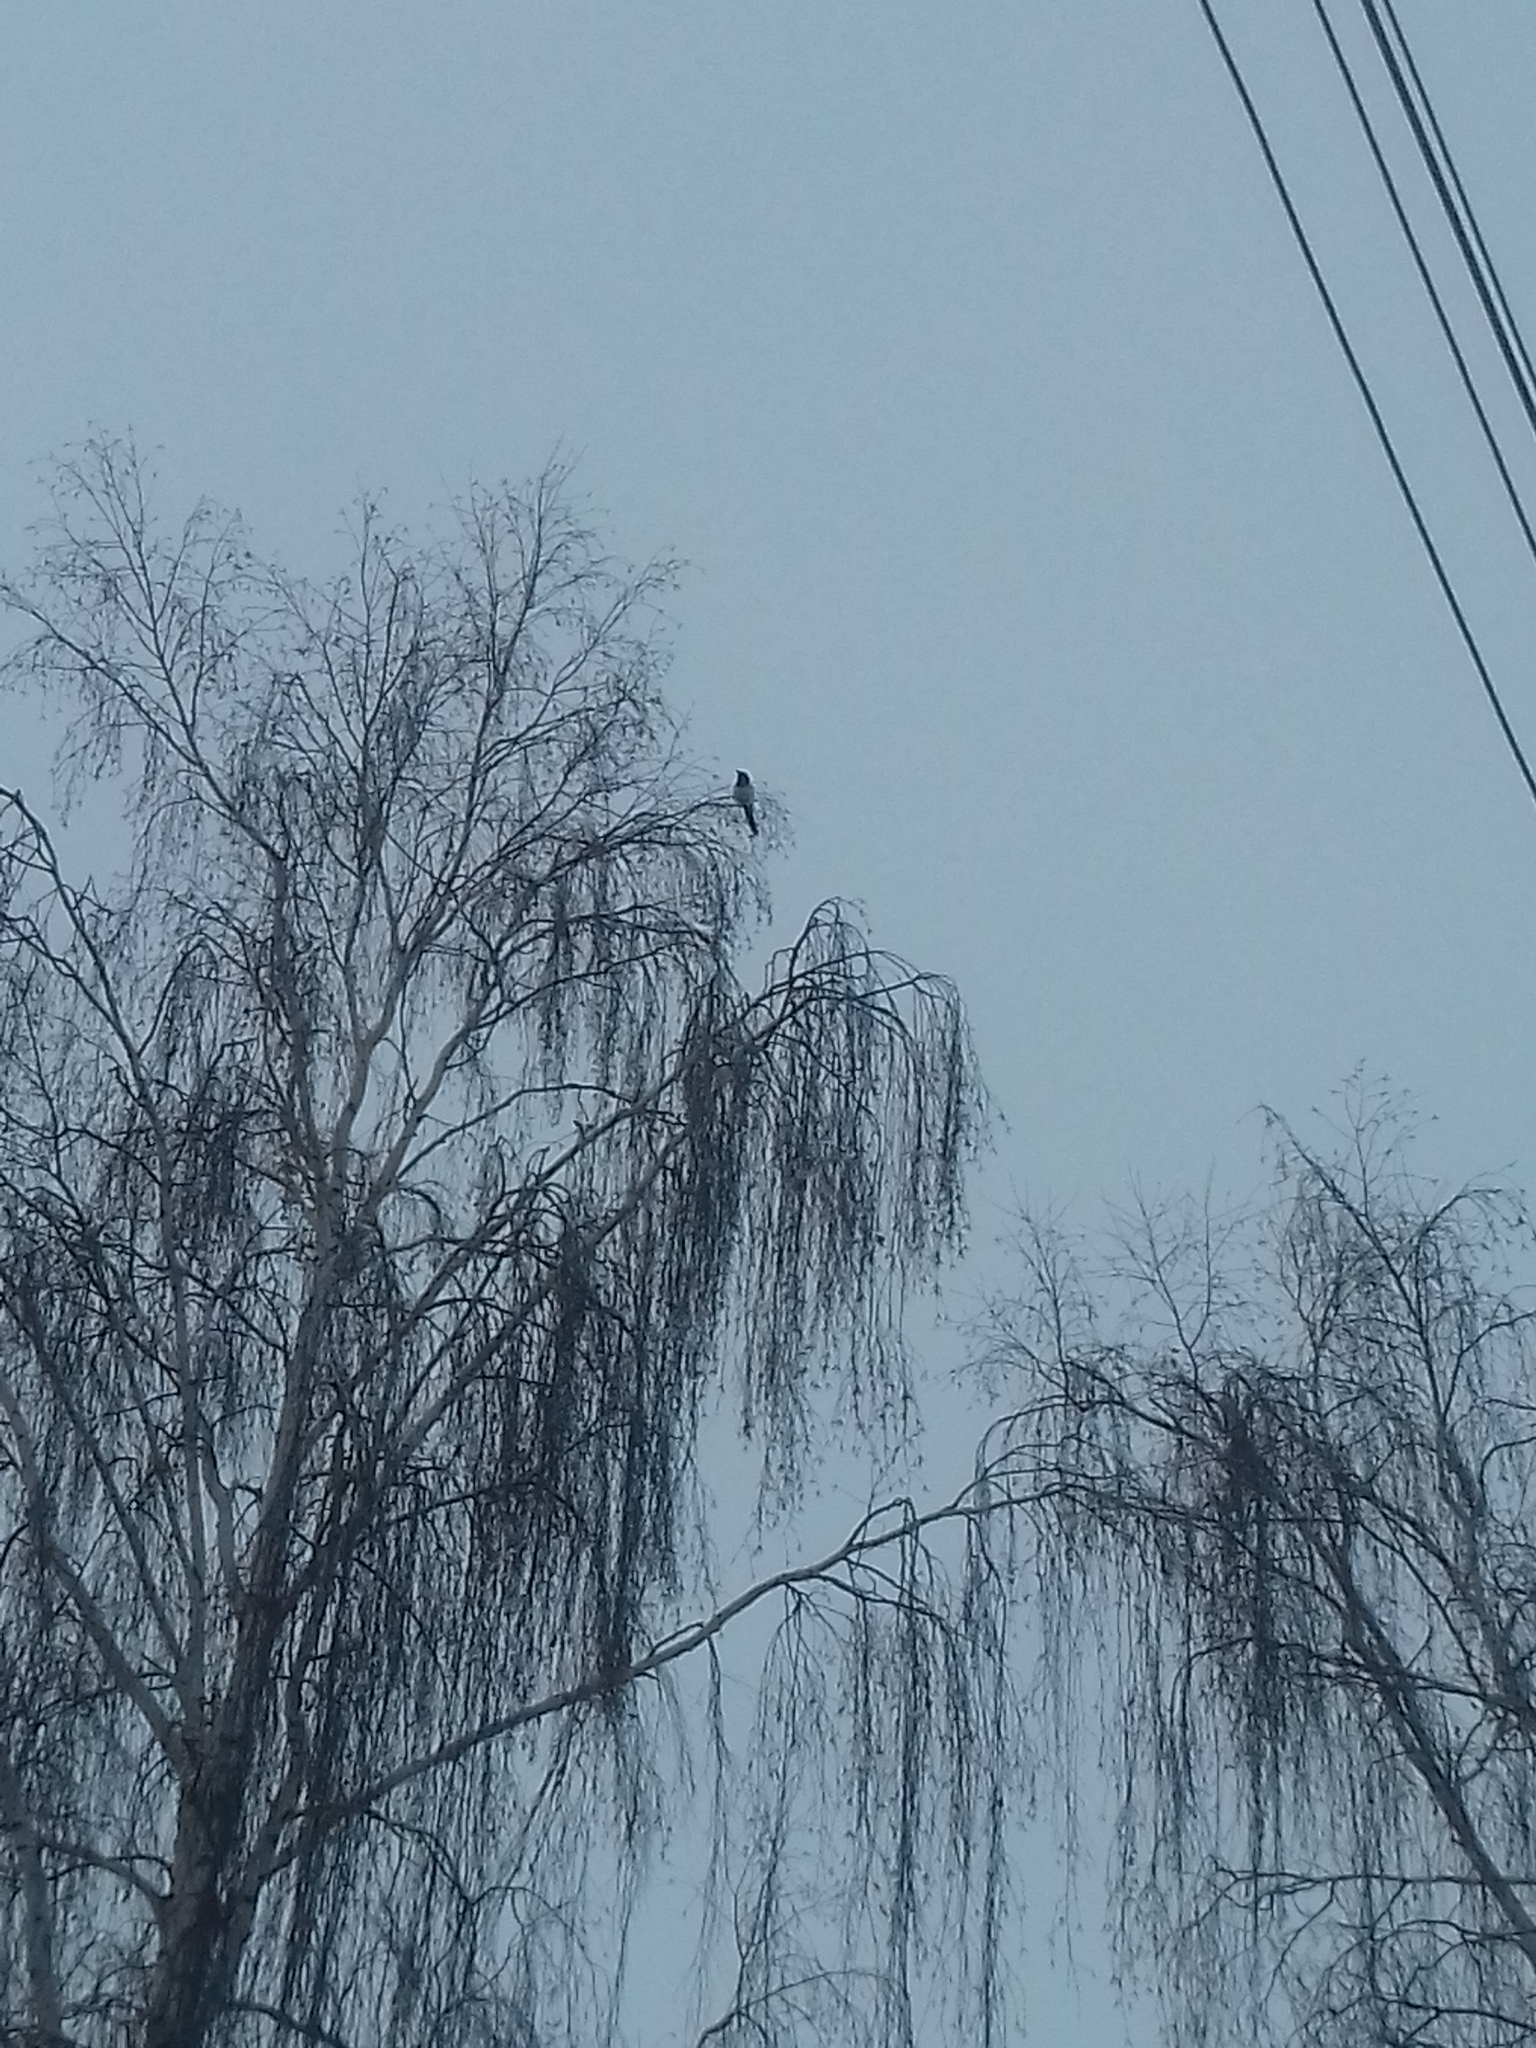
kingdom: Animalia
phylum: Chordata
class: Aves
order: Passeriformes
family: Corvidae
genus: Pica
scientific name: Pica pica
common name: Eurasian magpie
